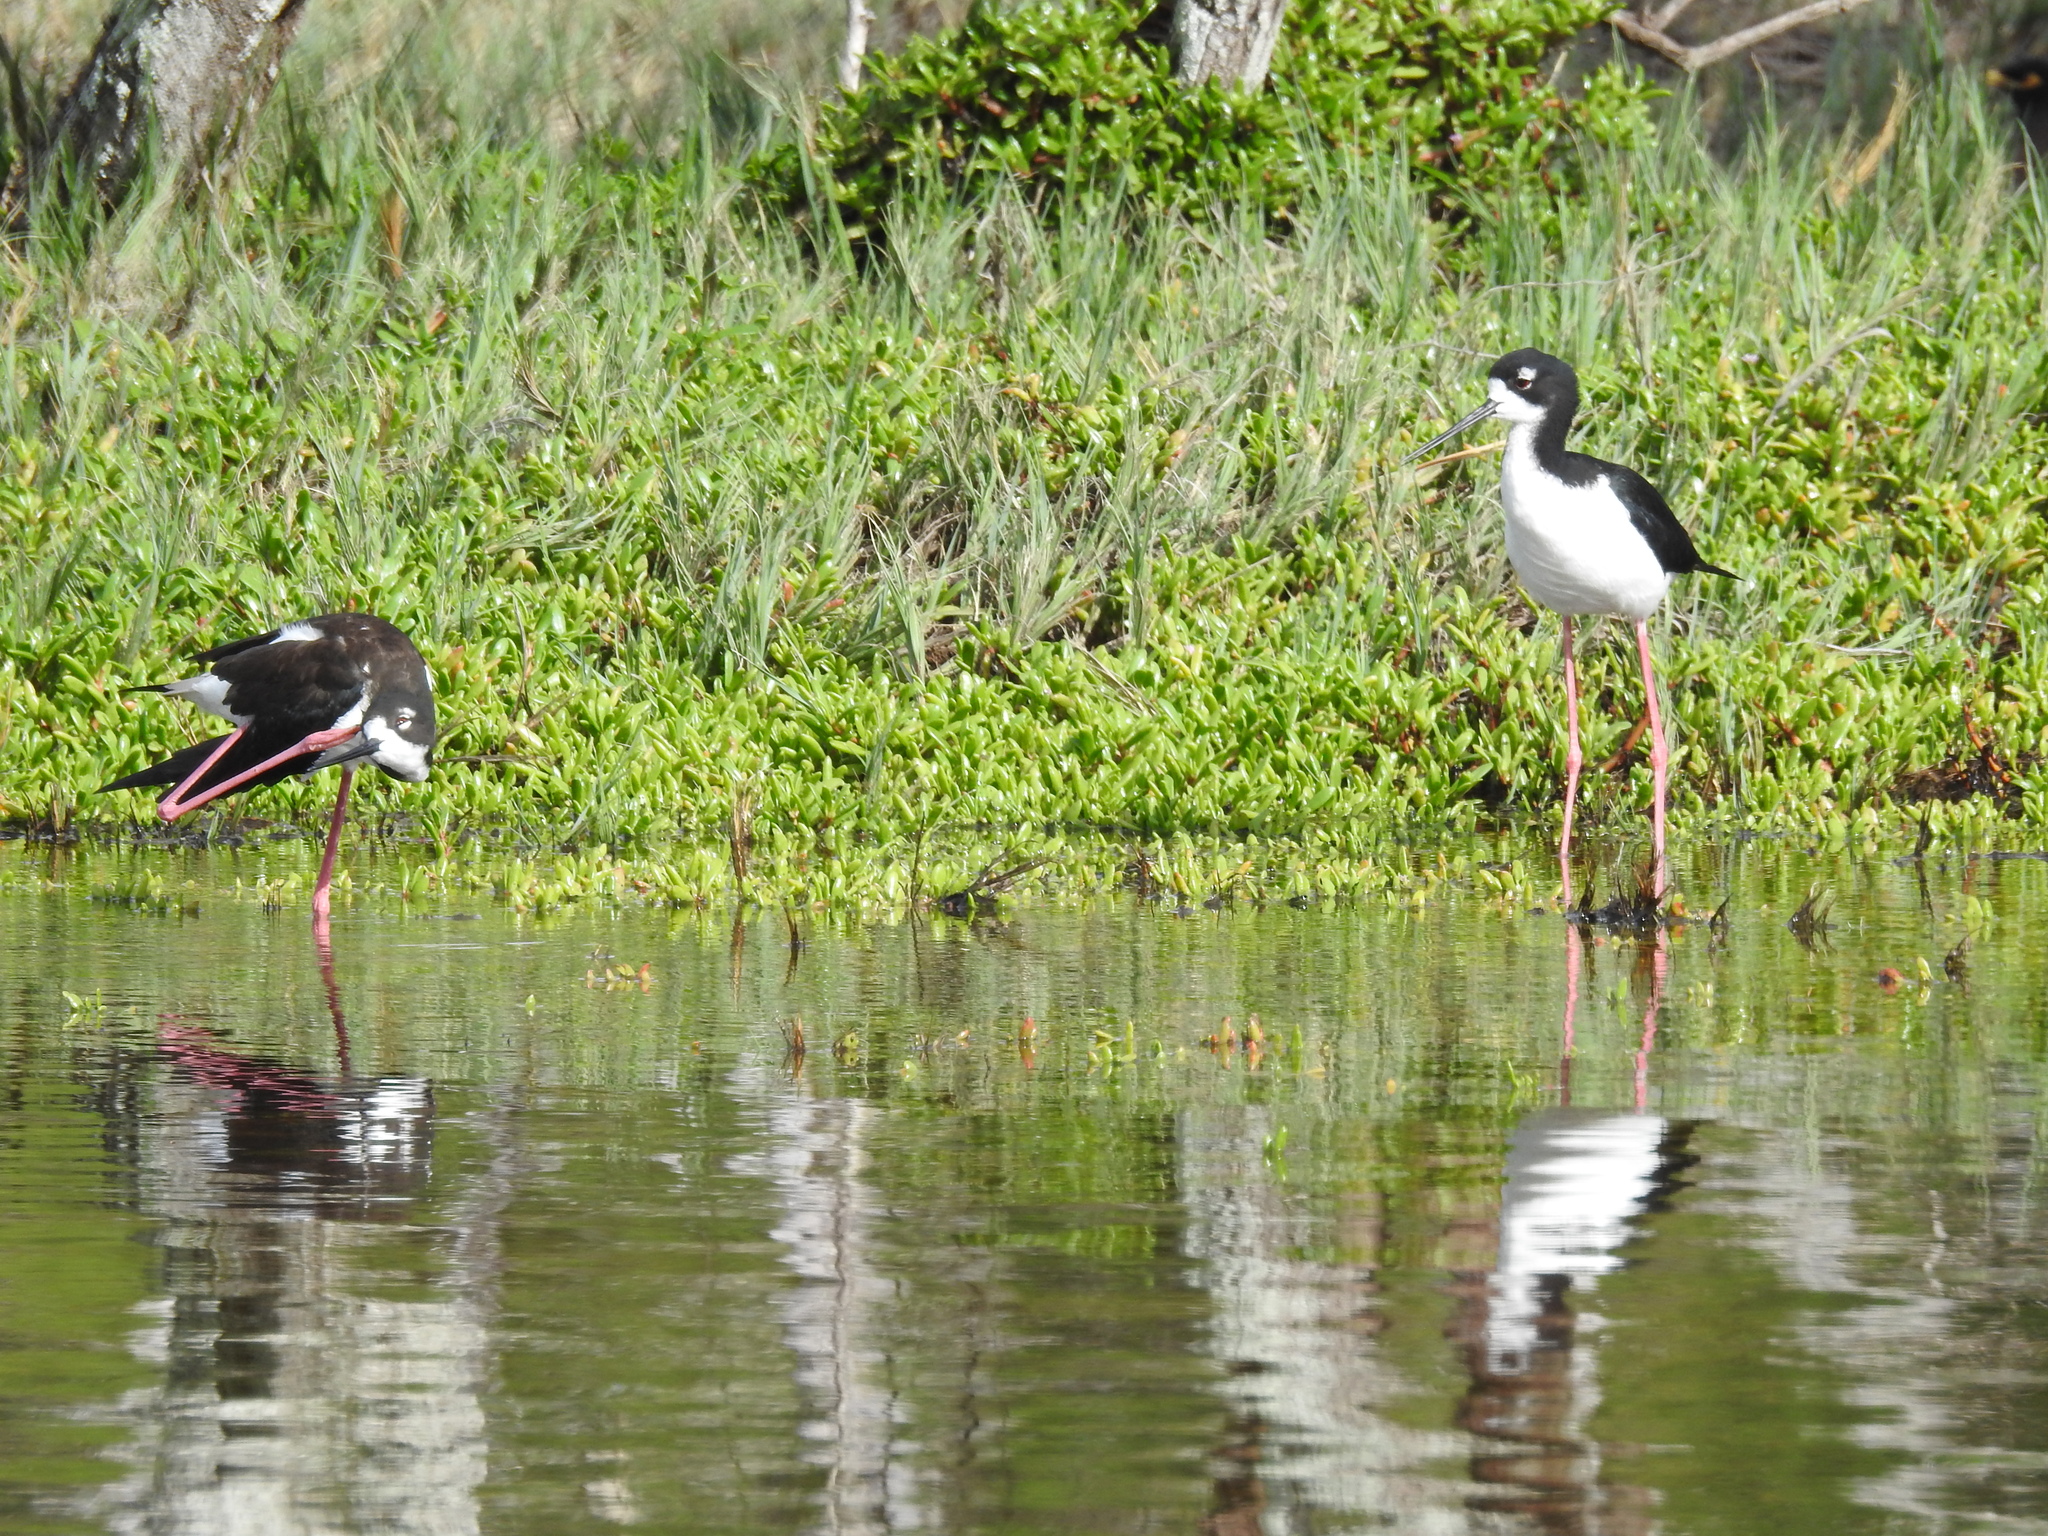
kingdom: Animalia
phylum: Chordata
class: Aves
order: Charadriiformes
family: Recurvirostridae
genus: Himantopus
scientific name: Himantopus mexicanus
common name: Black-necked stilt
